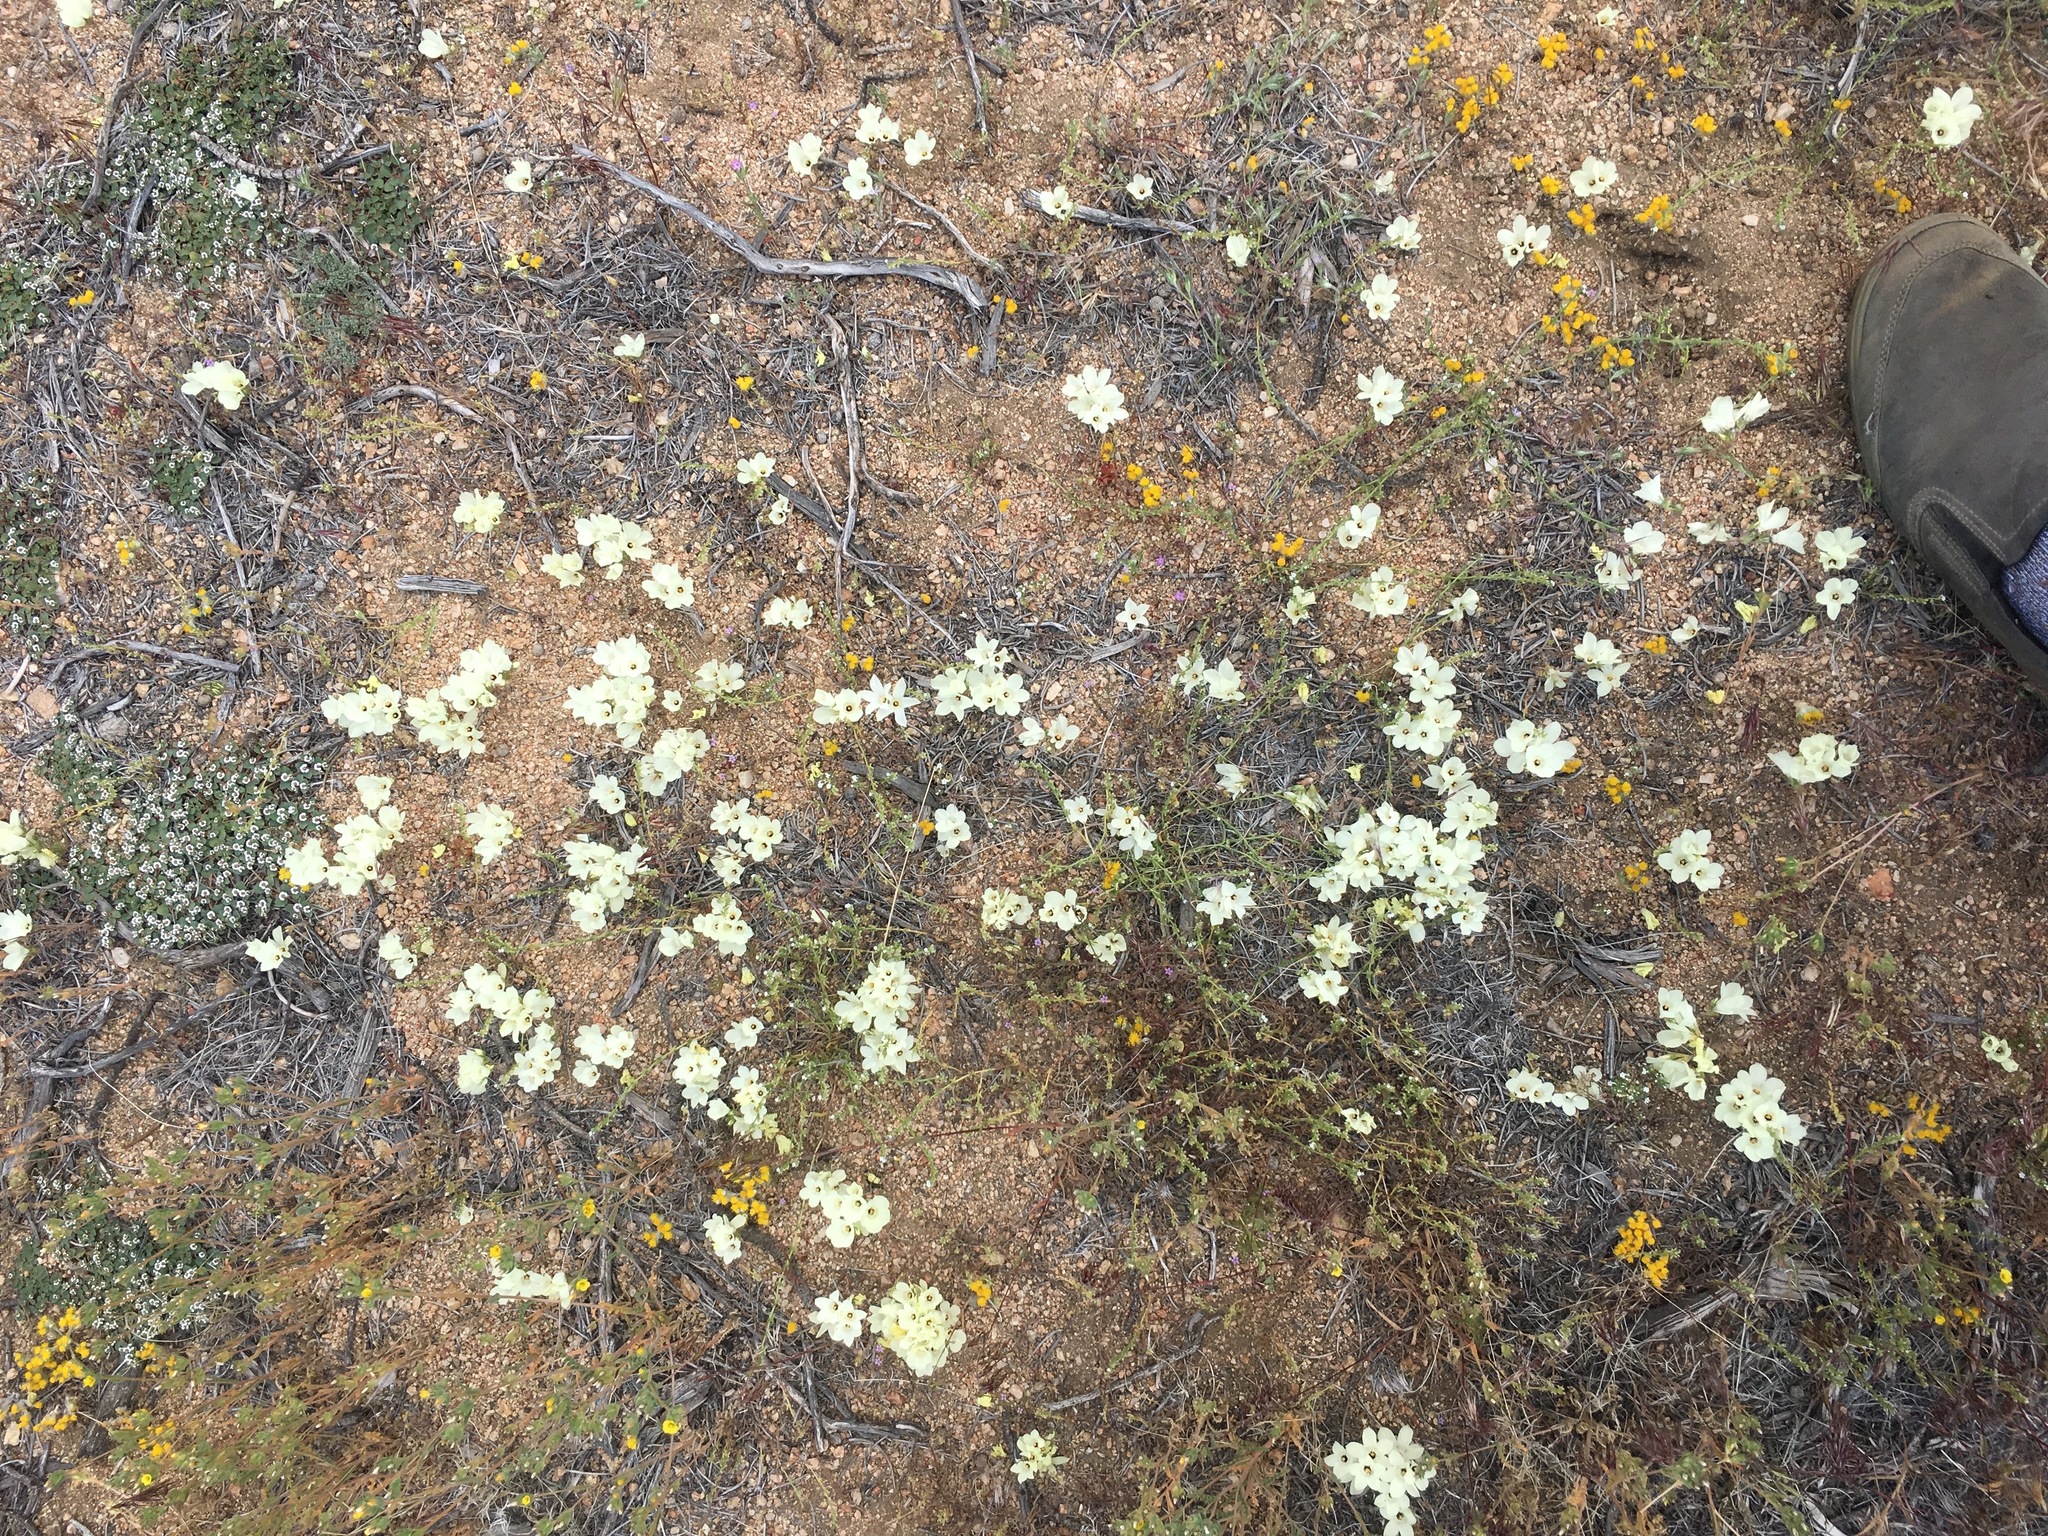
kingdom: Plantae
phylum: Tracheophyta
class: Magnoliopsida
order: Ericales
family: Polemoniaceae
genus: Linanthus
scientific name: Linanthus parryae
